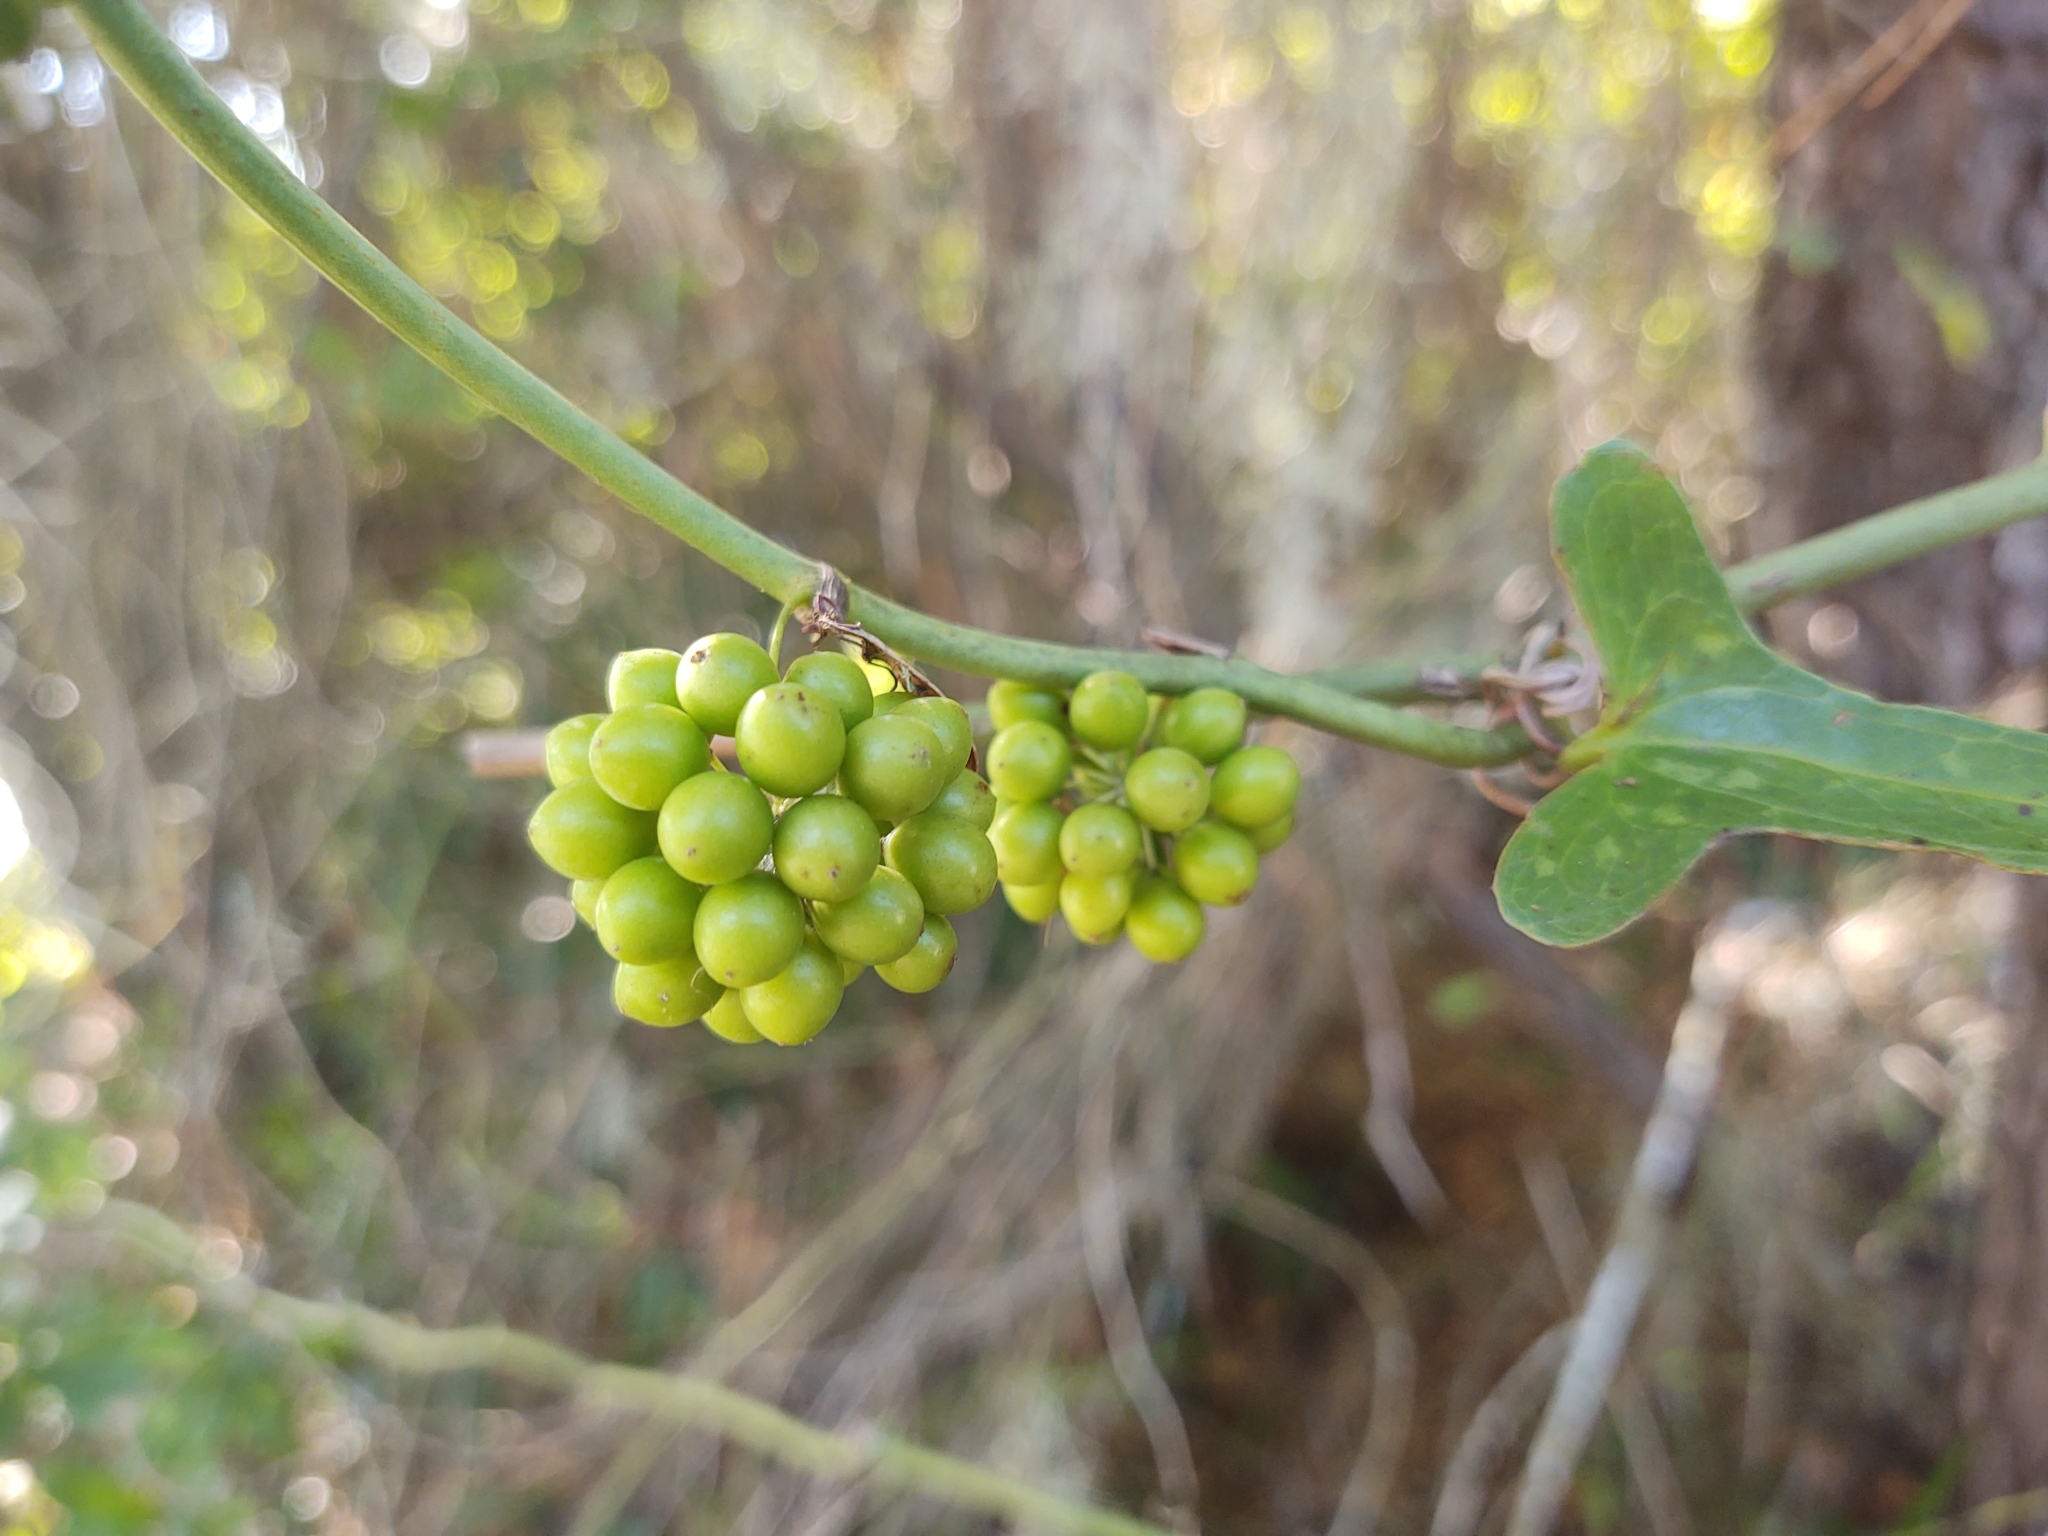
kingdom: Plantae
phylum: Tracheophyta
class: Liliopsida
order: Liliales
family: Smilacaceae
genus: Smilax
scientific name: Smilax bona-nox
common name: Catbrier
